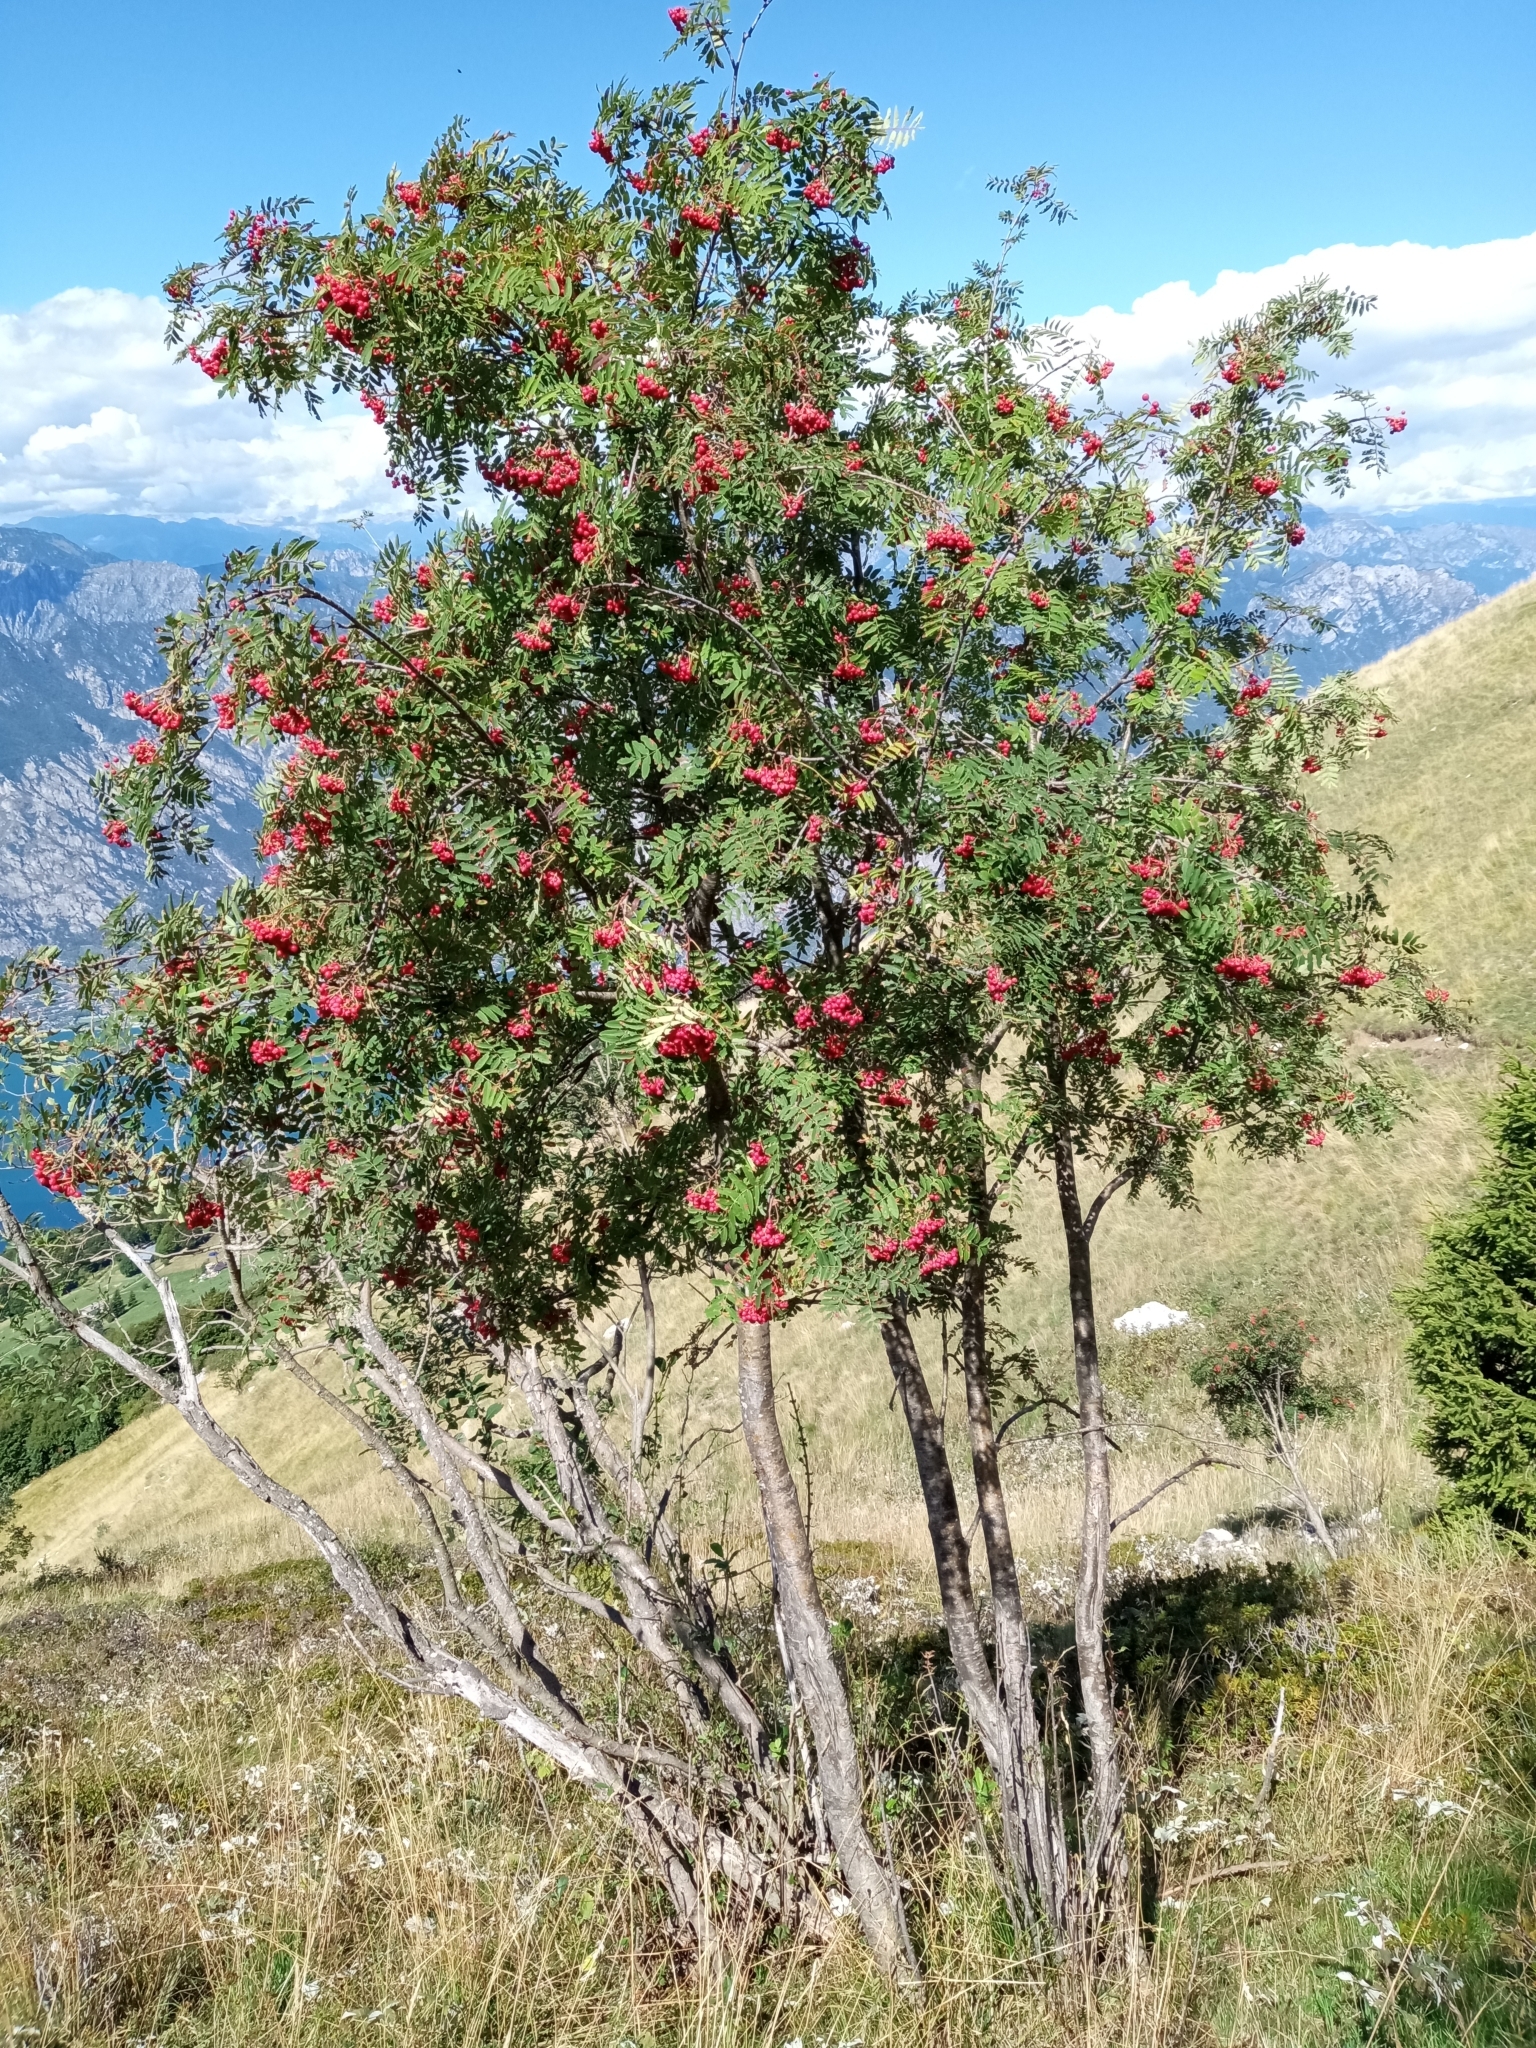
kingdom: Plantae
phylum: Tracheophyta
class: Magnoliopsida
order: Rosales
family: Rosaceae
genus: Sorbus
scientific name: Sorbus aucuparia
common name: Rowan
